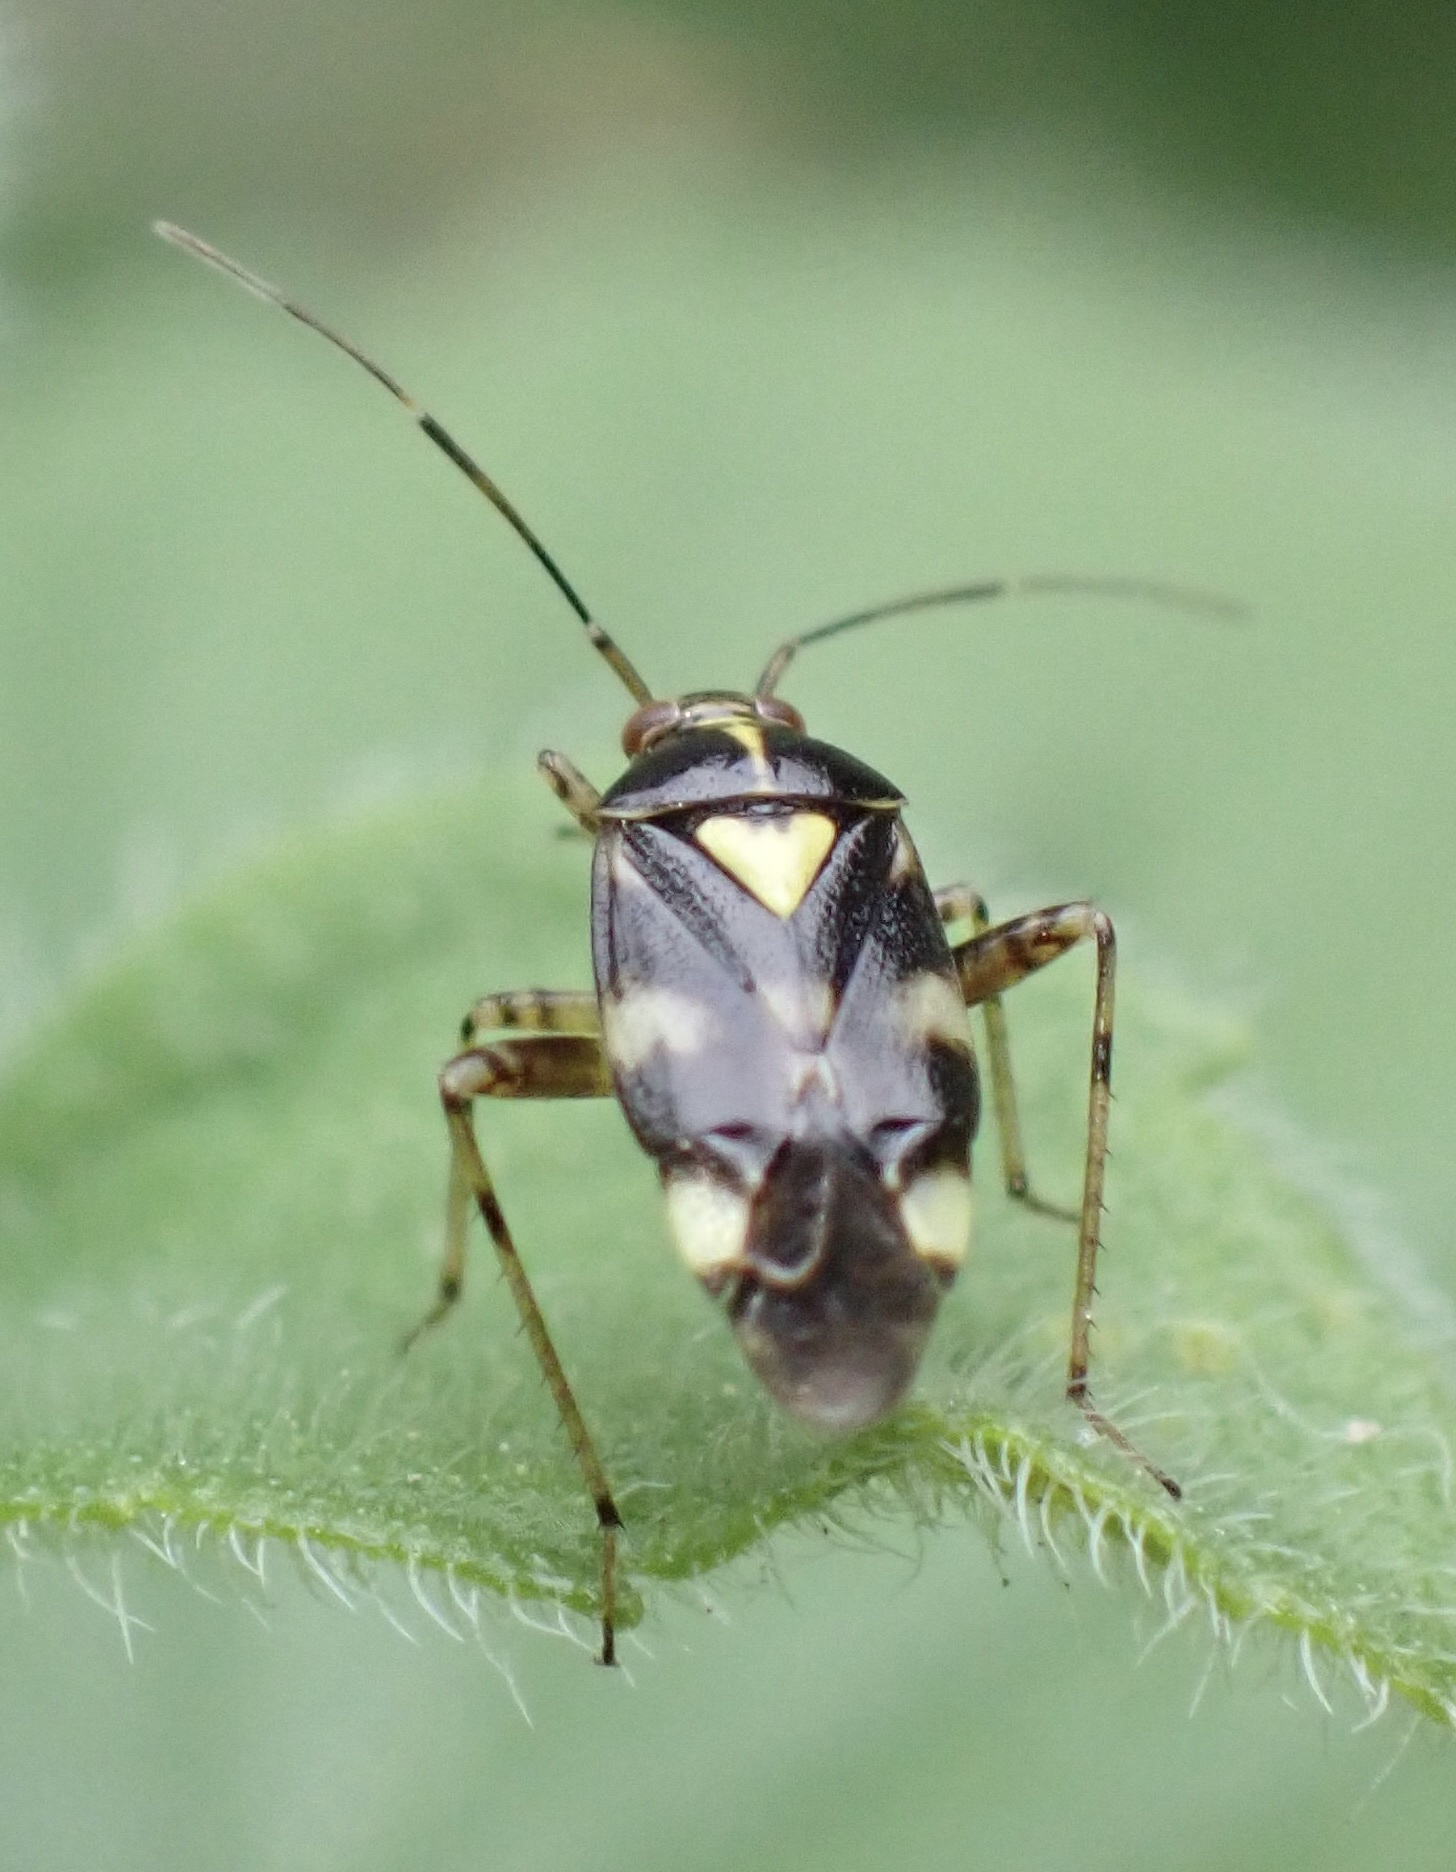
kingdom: Animalia
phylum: Arthropoda
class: Insecta
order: Hemiptera
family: Miridae
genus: Liocoris
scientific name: Liocoris tripustulatus
